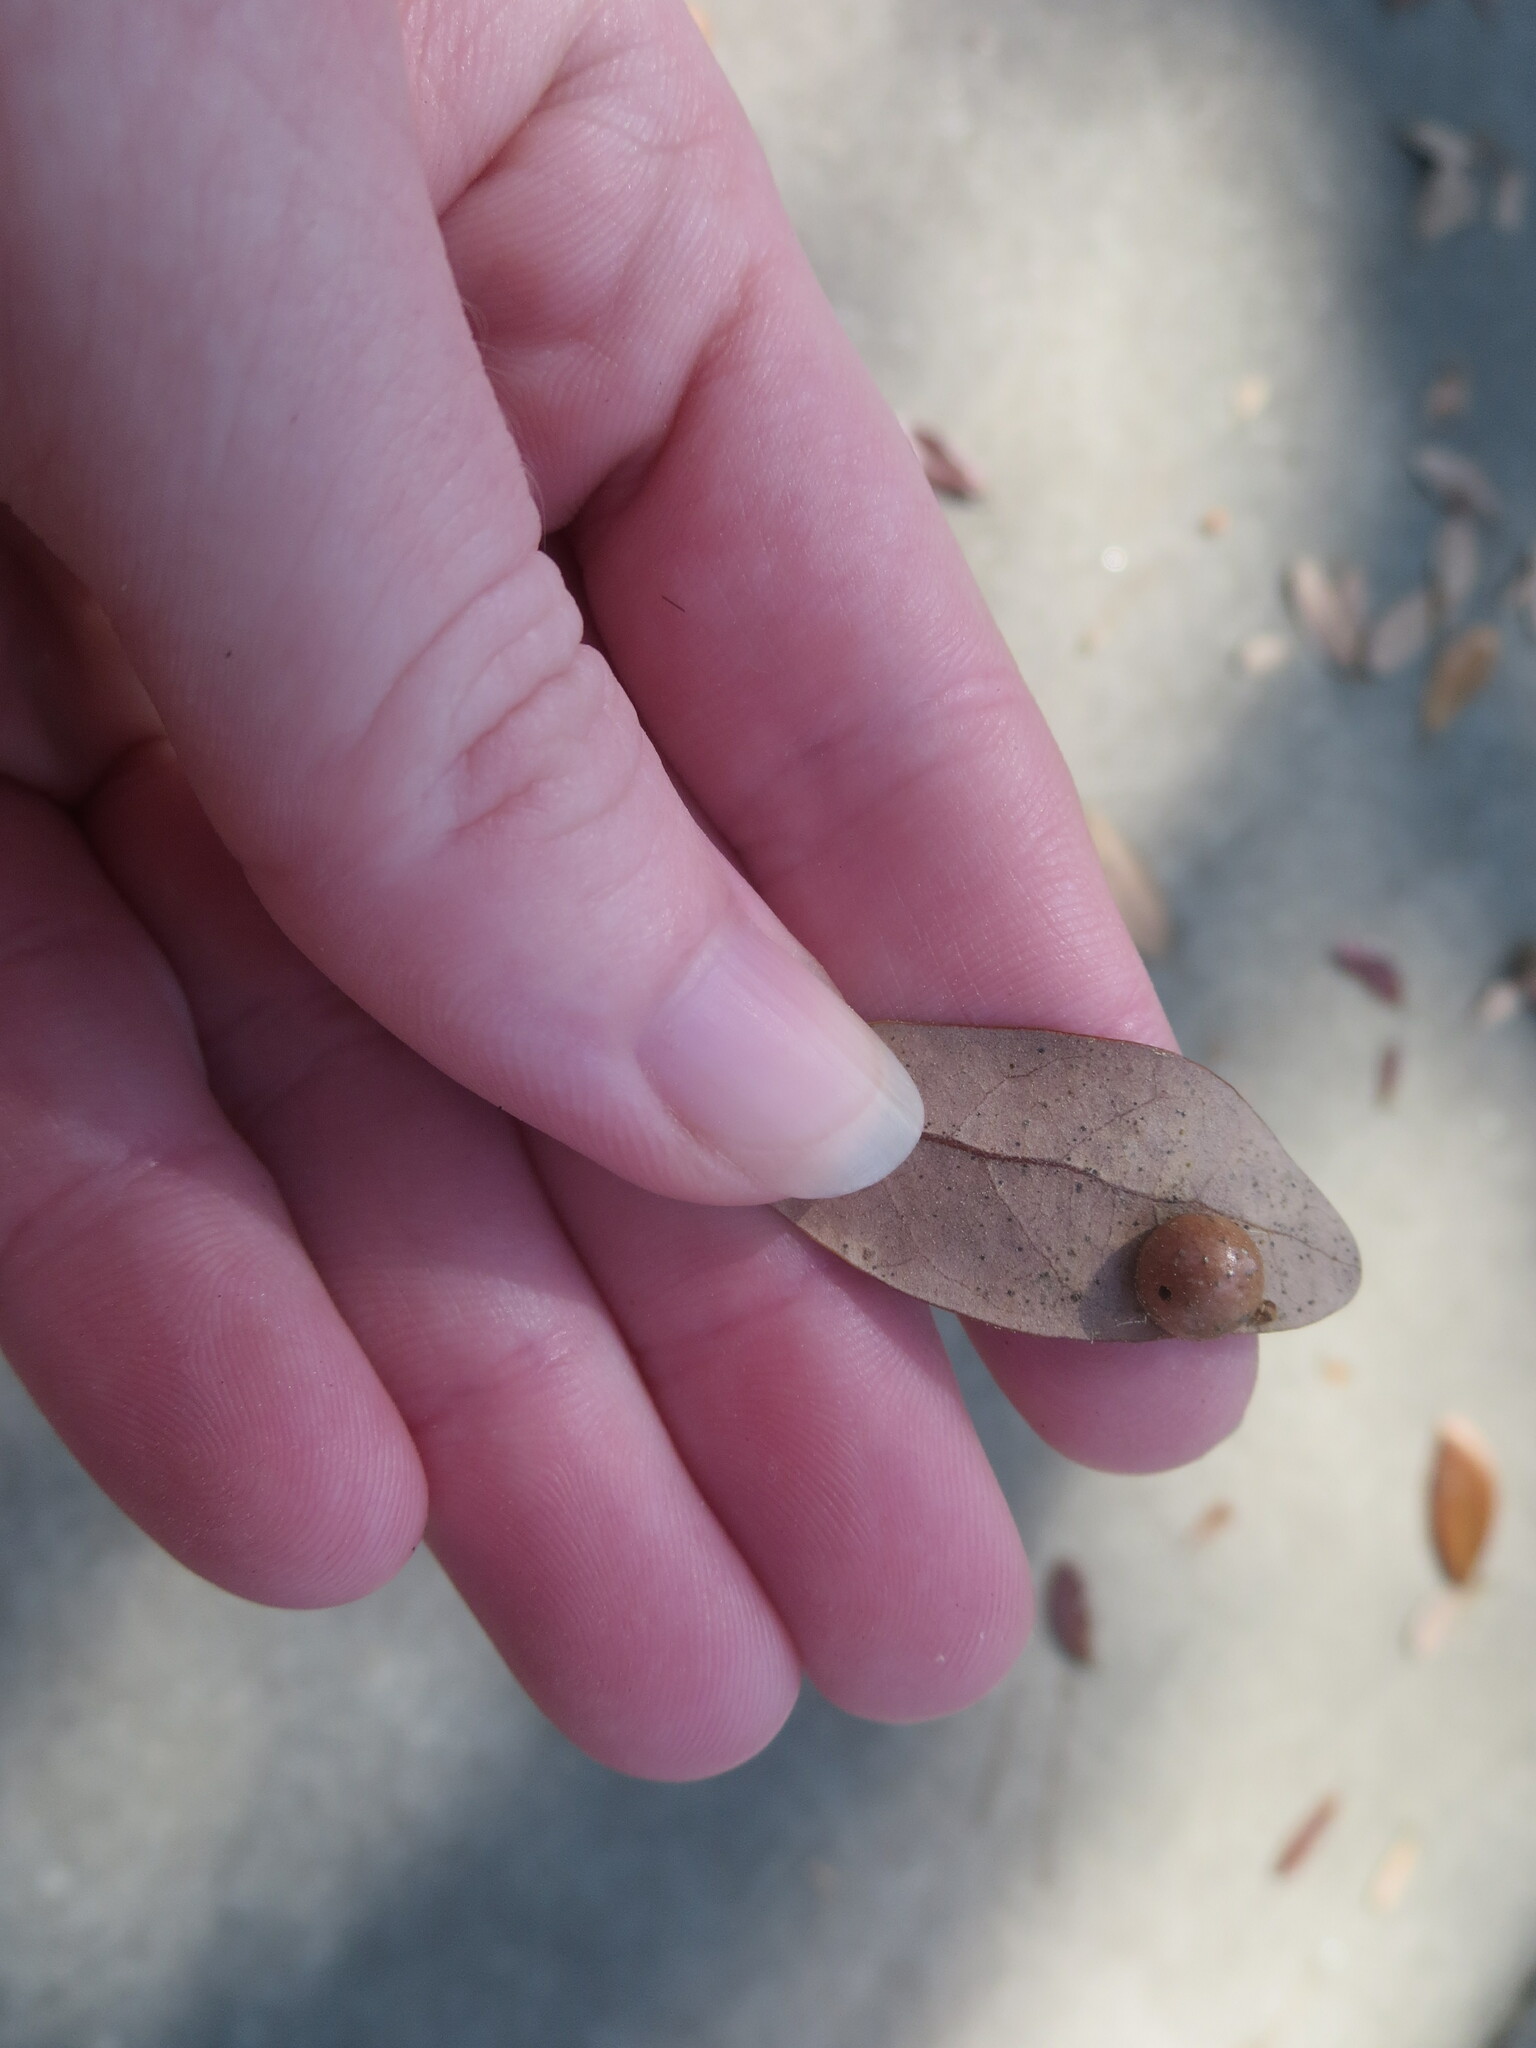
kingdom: Animalia
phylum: Arthropoda
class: Insecta
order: Hymenoptera
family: Cynipidae
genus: Belonocnema
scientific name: Belonocnema treatae
